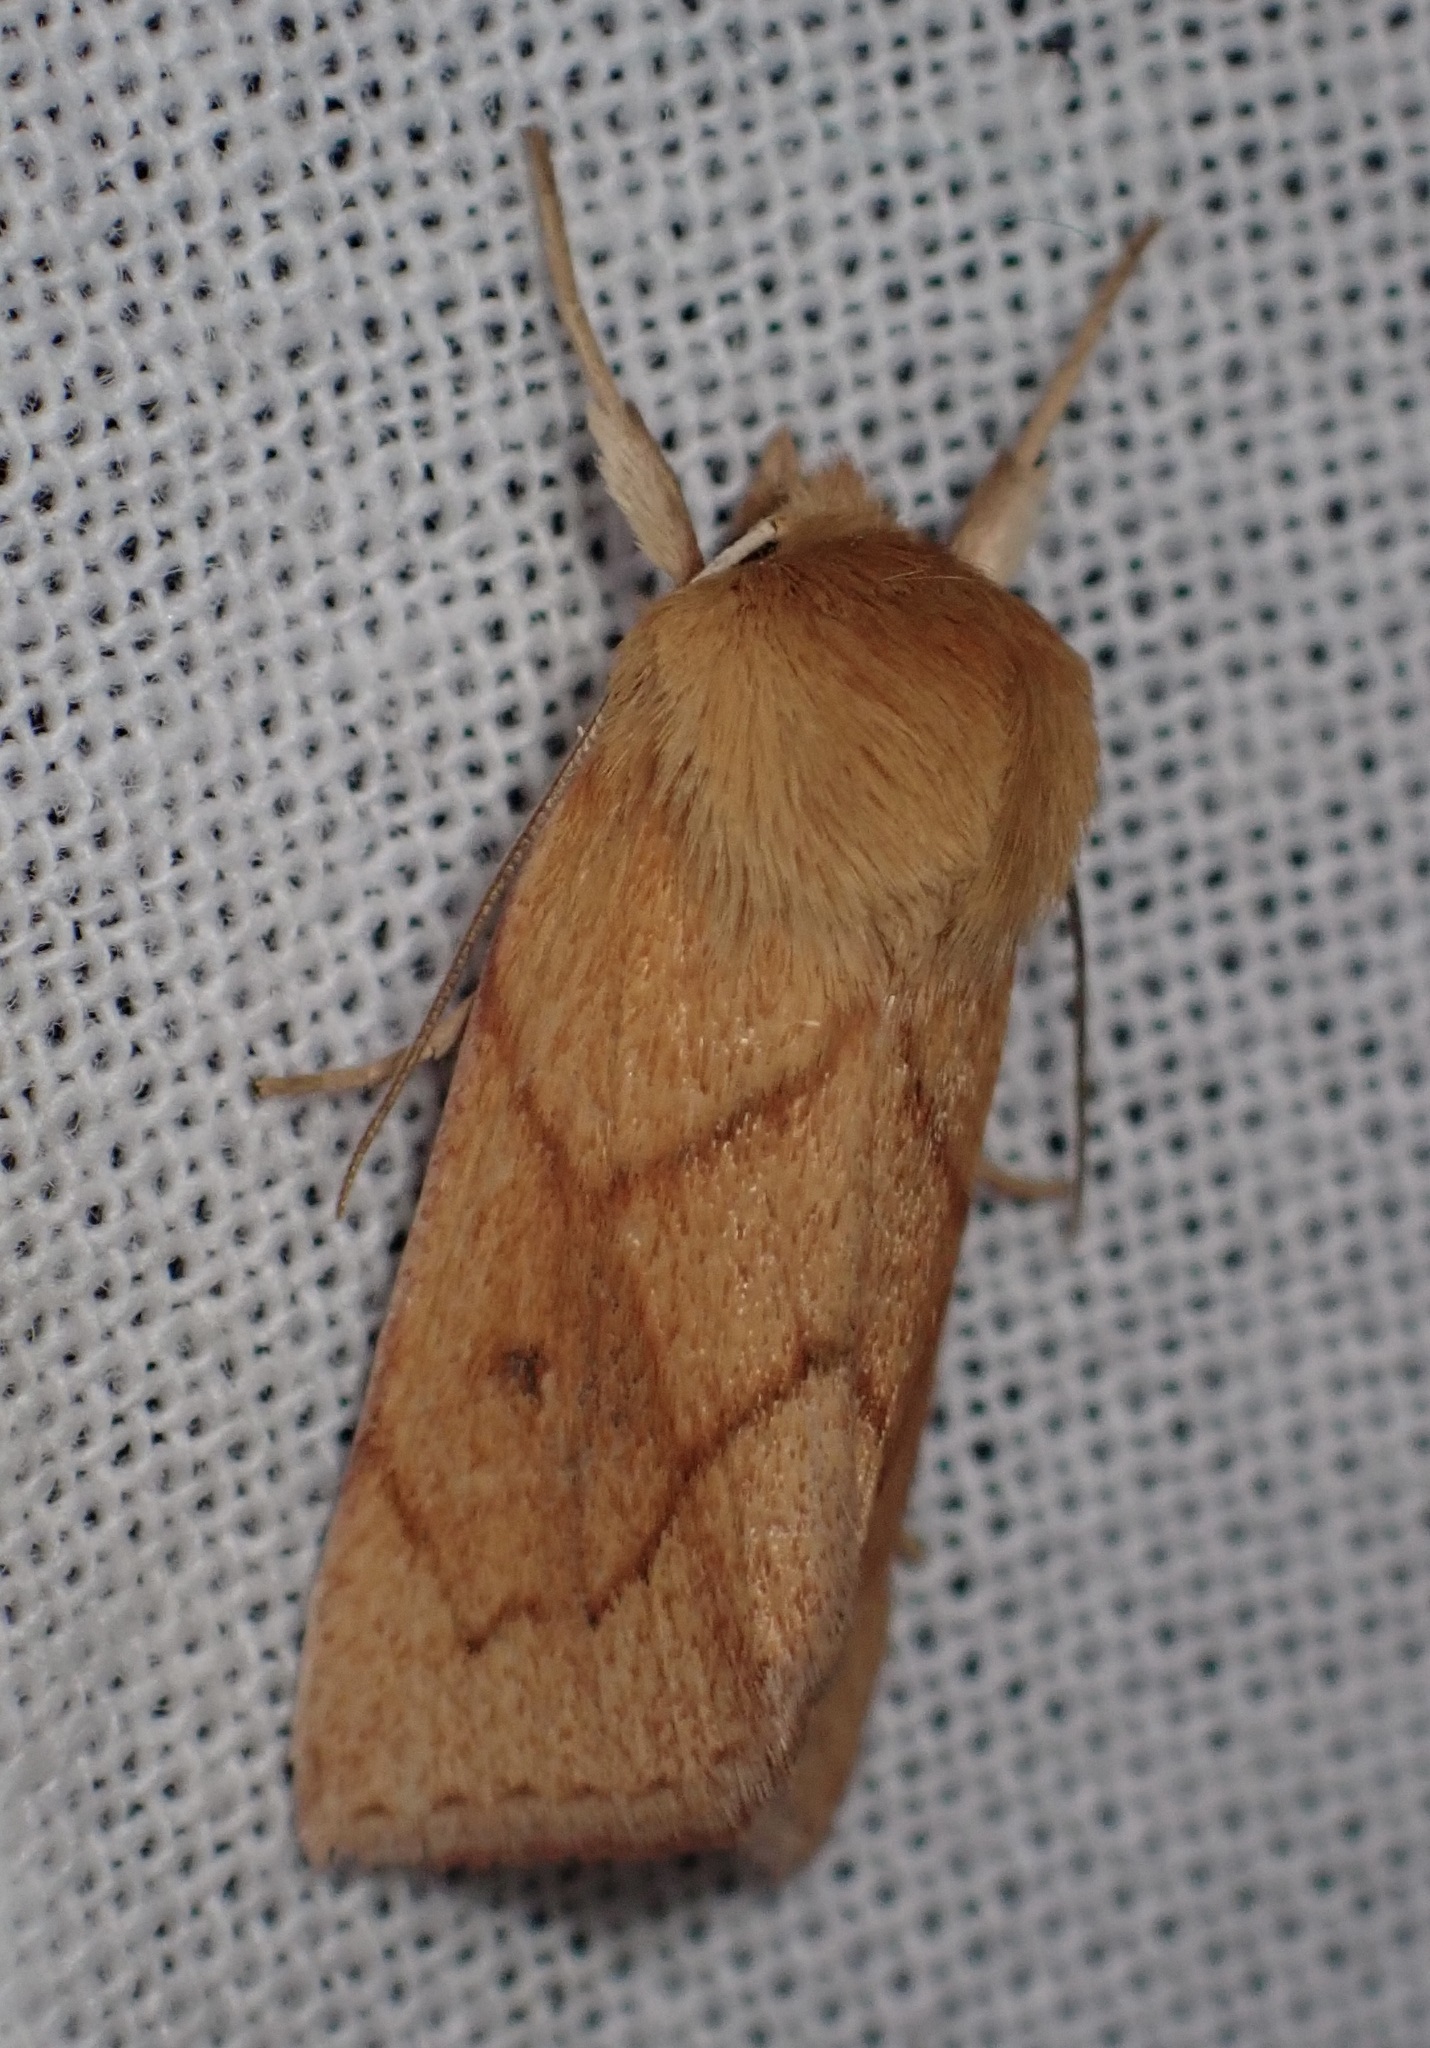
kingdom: Animalia
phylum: Arthropoda
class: Insecta
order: Lepidoptera
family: Noctuidae
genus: Zosteropoda
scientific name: Zosteropoda hirtipes
